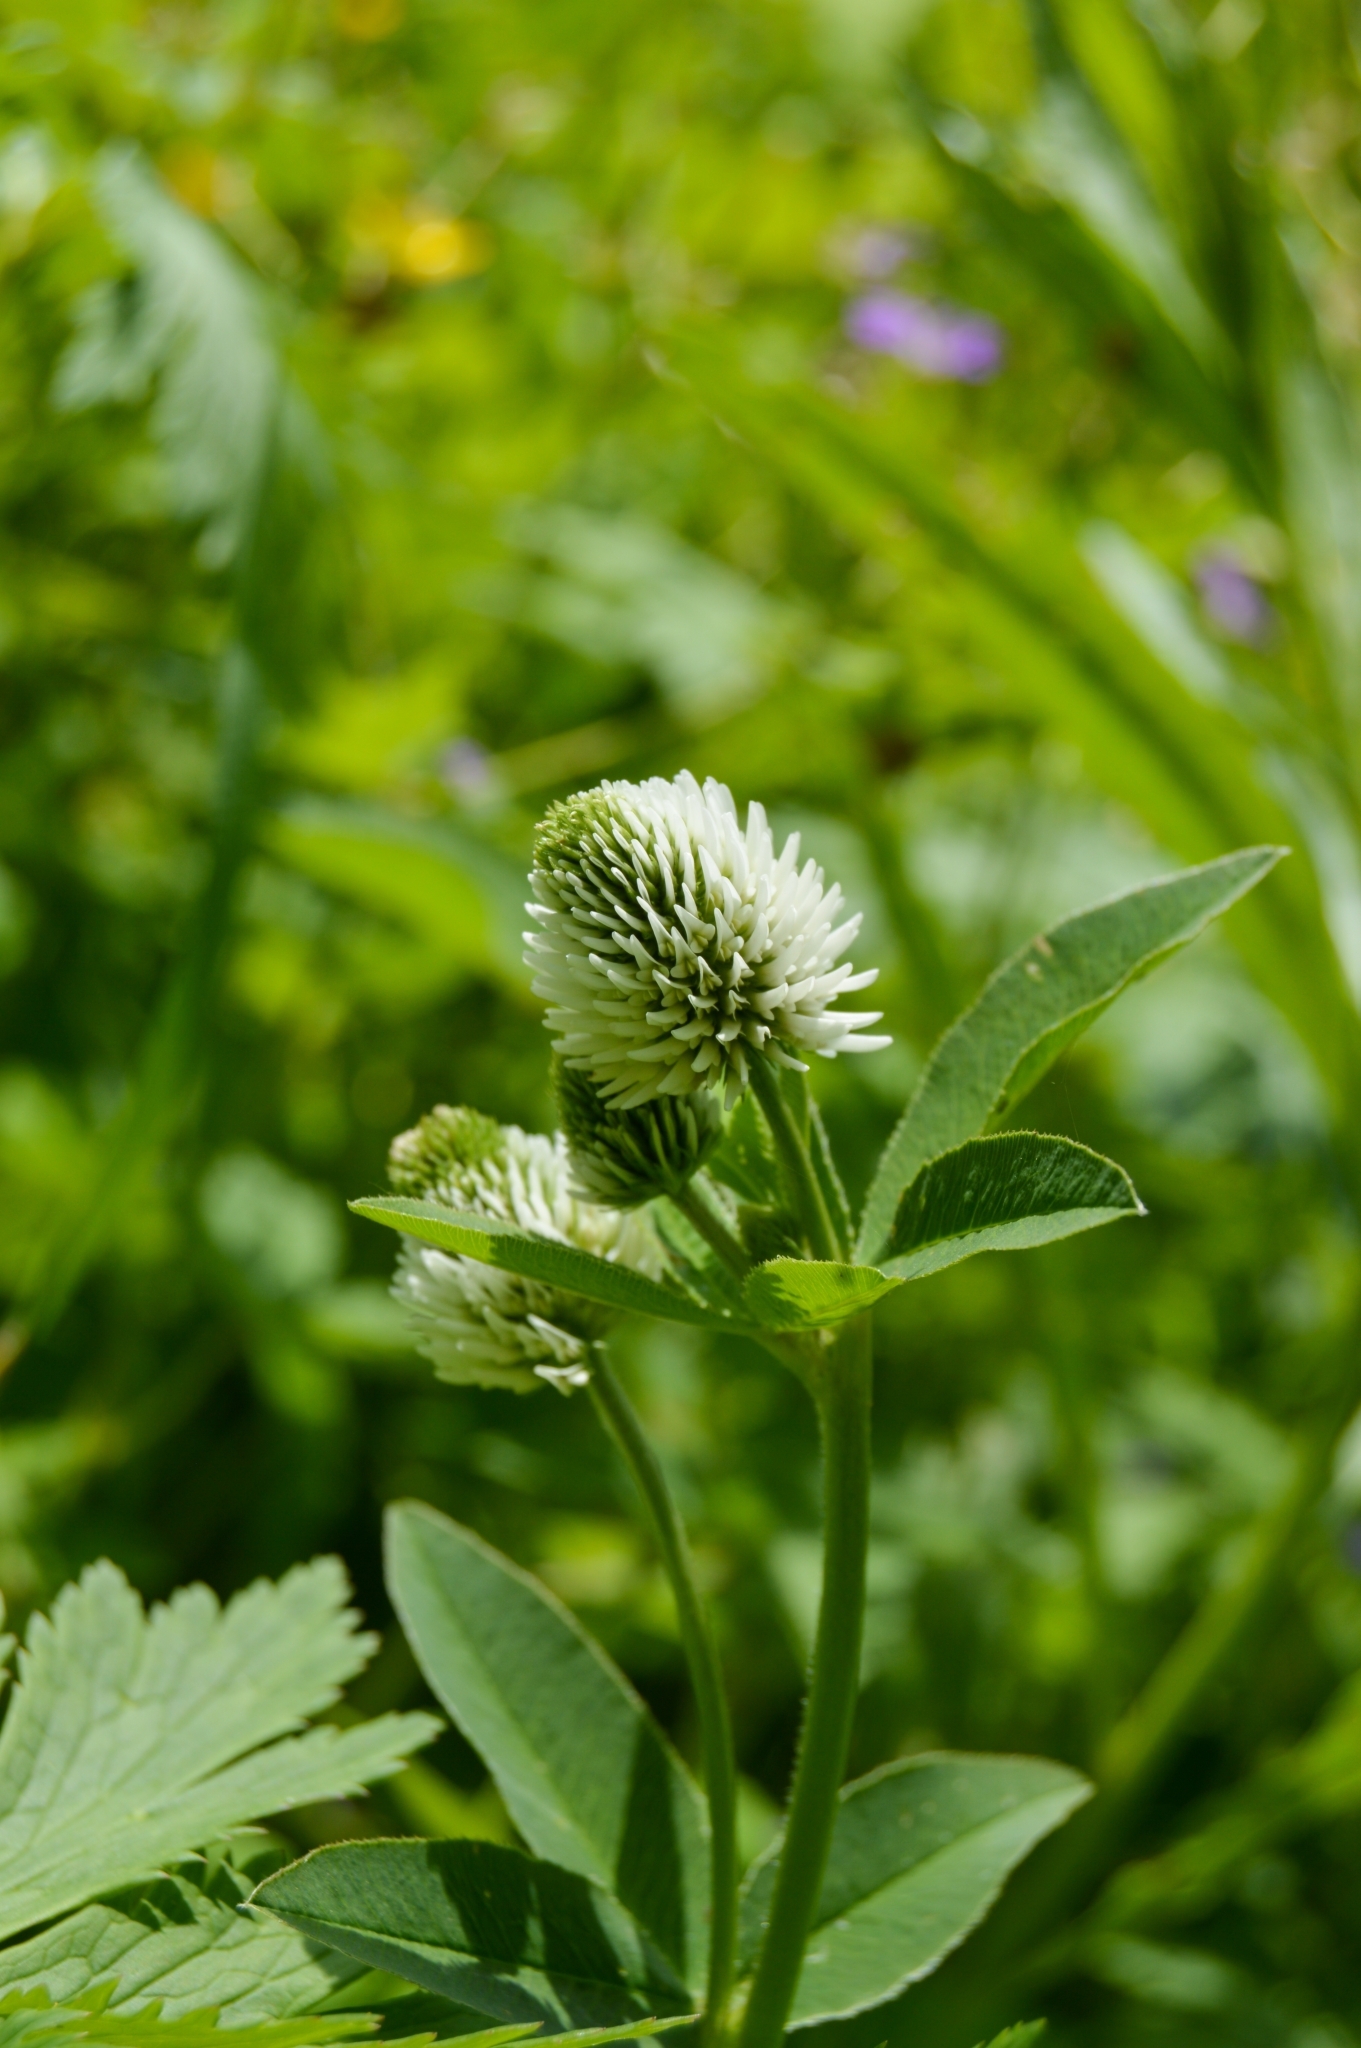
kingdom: Plantae
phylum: Tracheophyta
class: Magnoliopsida
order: Fabales
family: Fabaceae
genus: Trifolium
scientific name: Trifolium montanum
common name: Mountain clover
